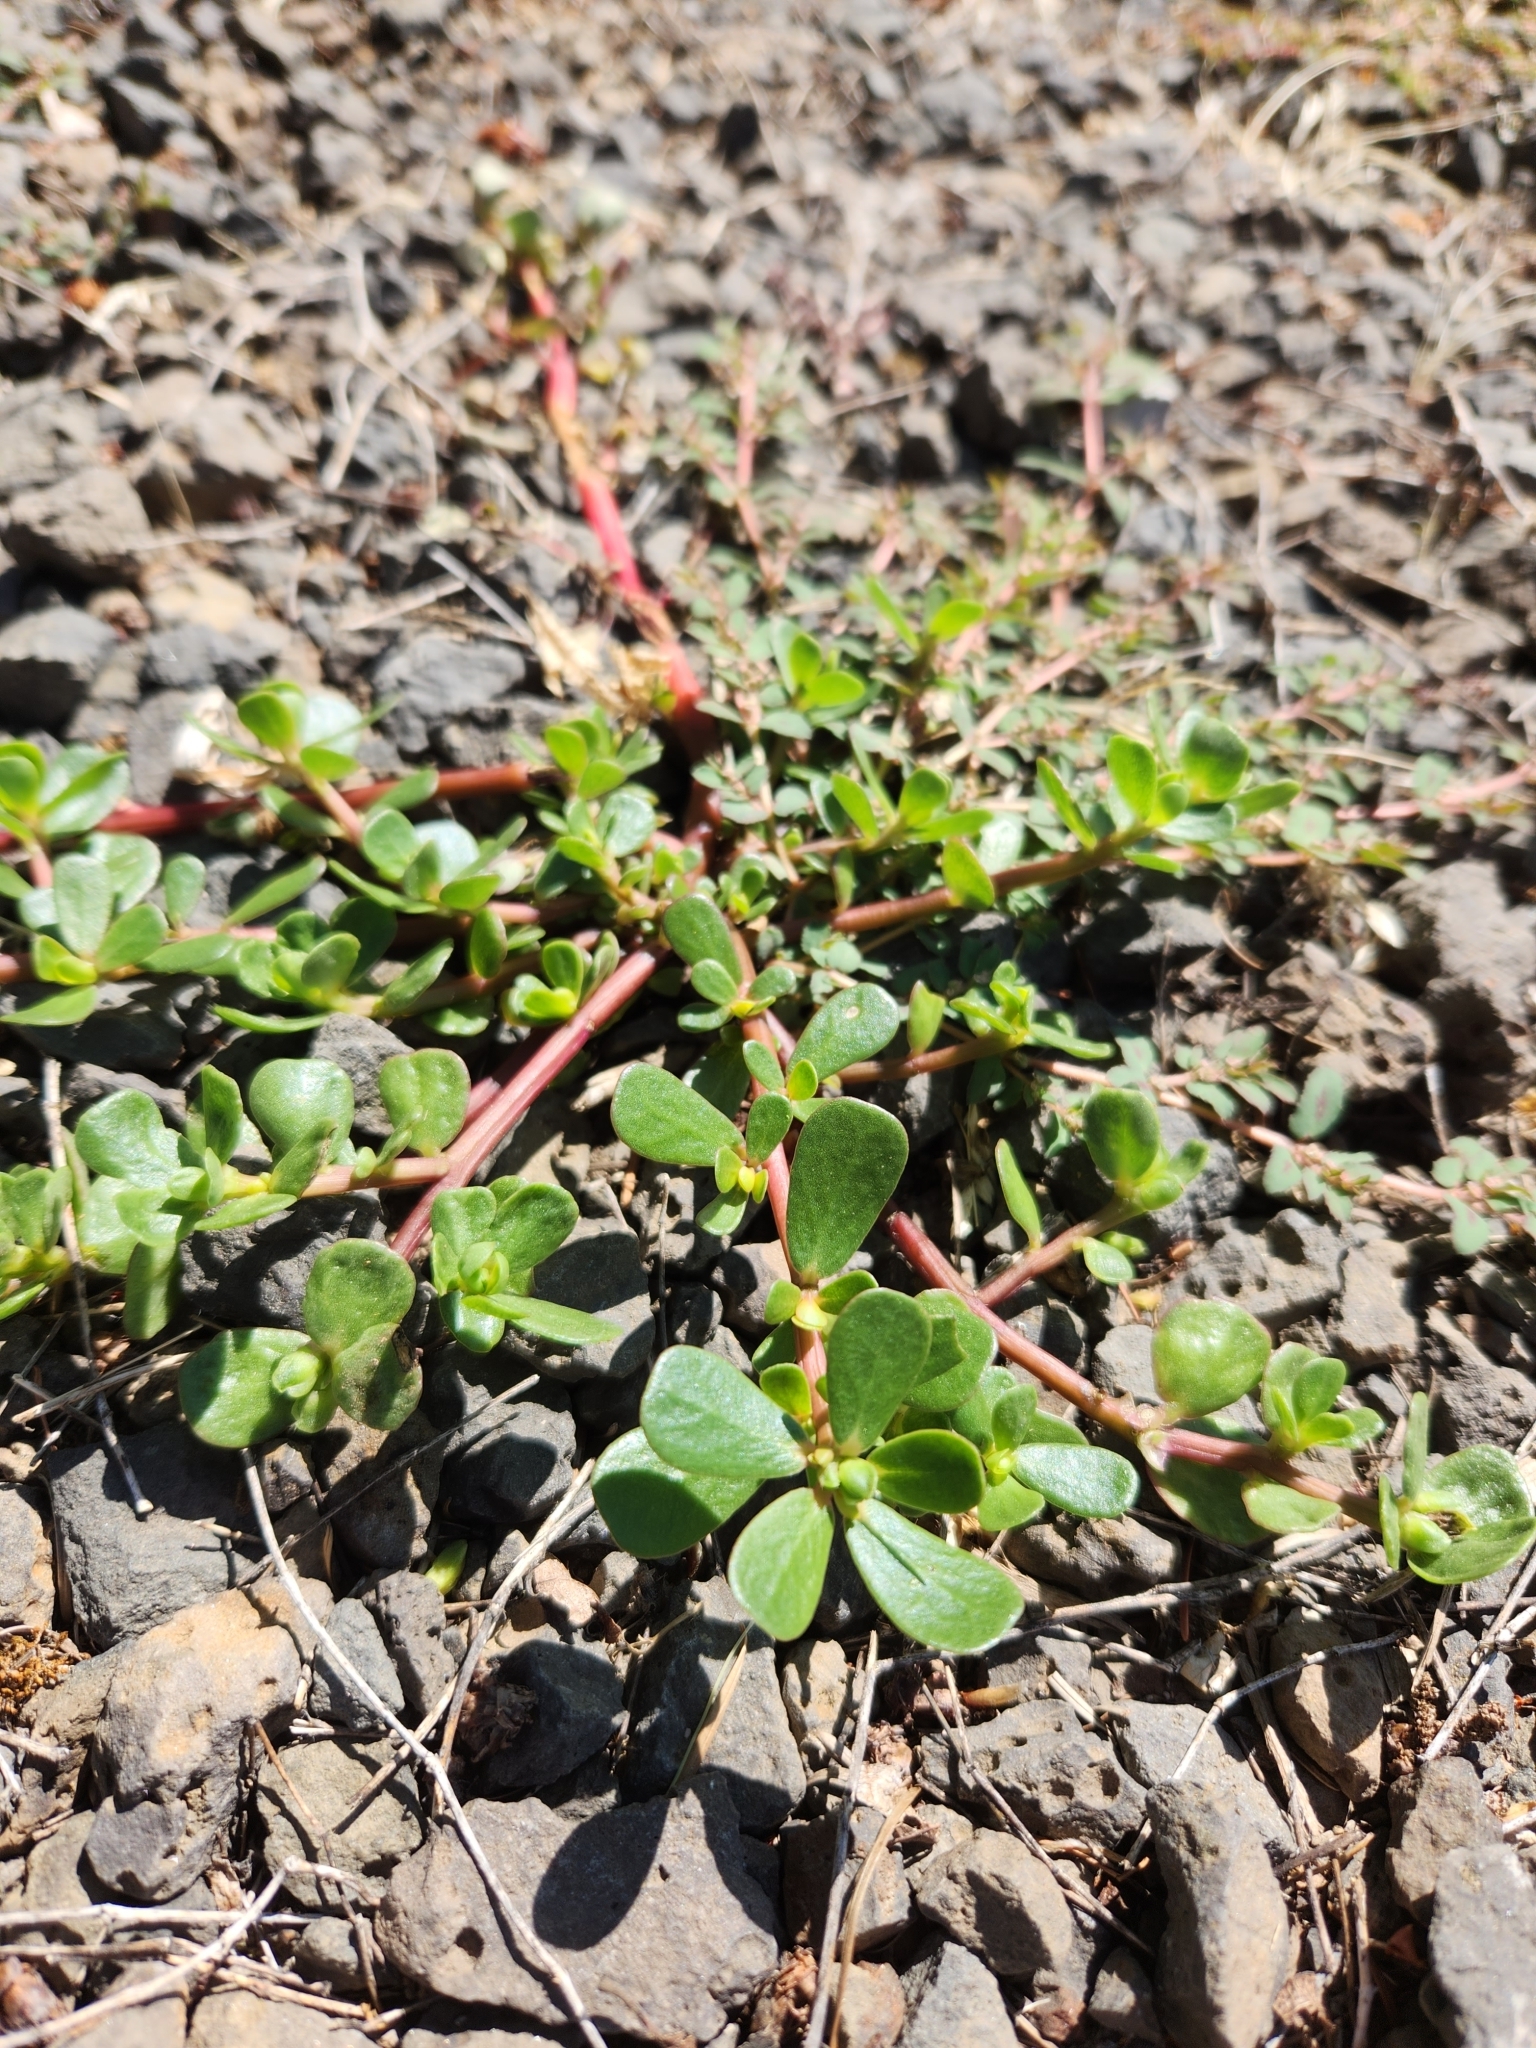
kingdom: Plantae
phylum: Tracheophyta
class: Magnoliopsida
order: Caryophyllales
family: Portulacaceae
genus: Portulaca
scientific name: Portulaca oleracea
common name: Common purslane
